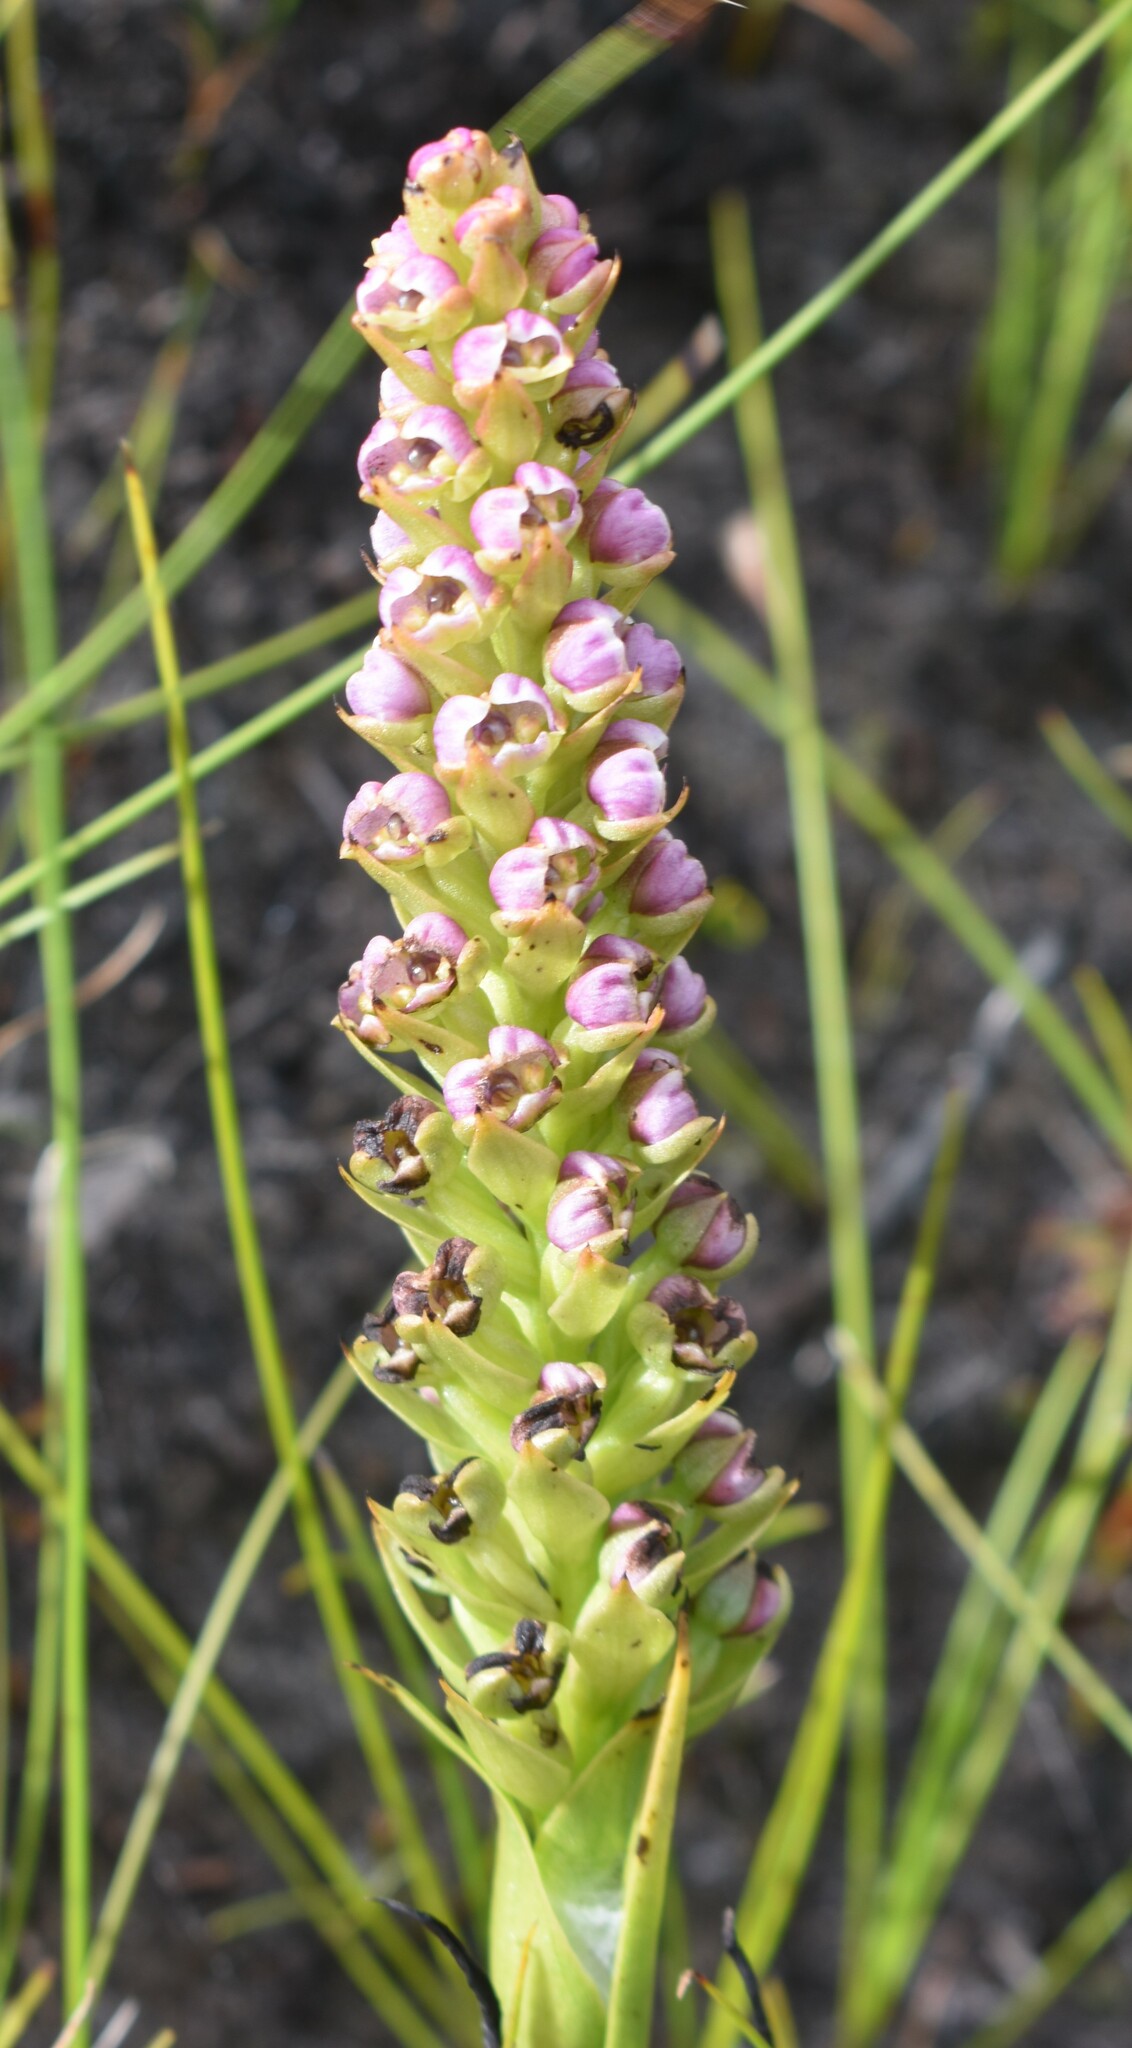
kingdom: Plantae
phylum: Tracheophyta
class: Liliopsida
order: Asparagales
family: Orchidaceae
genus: Evotella
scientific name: Evotella carnosa
